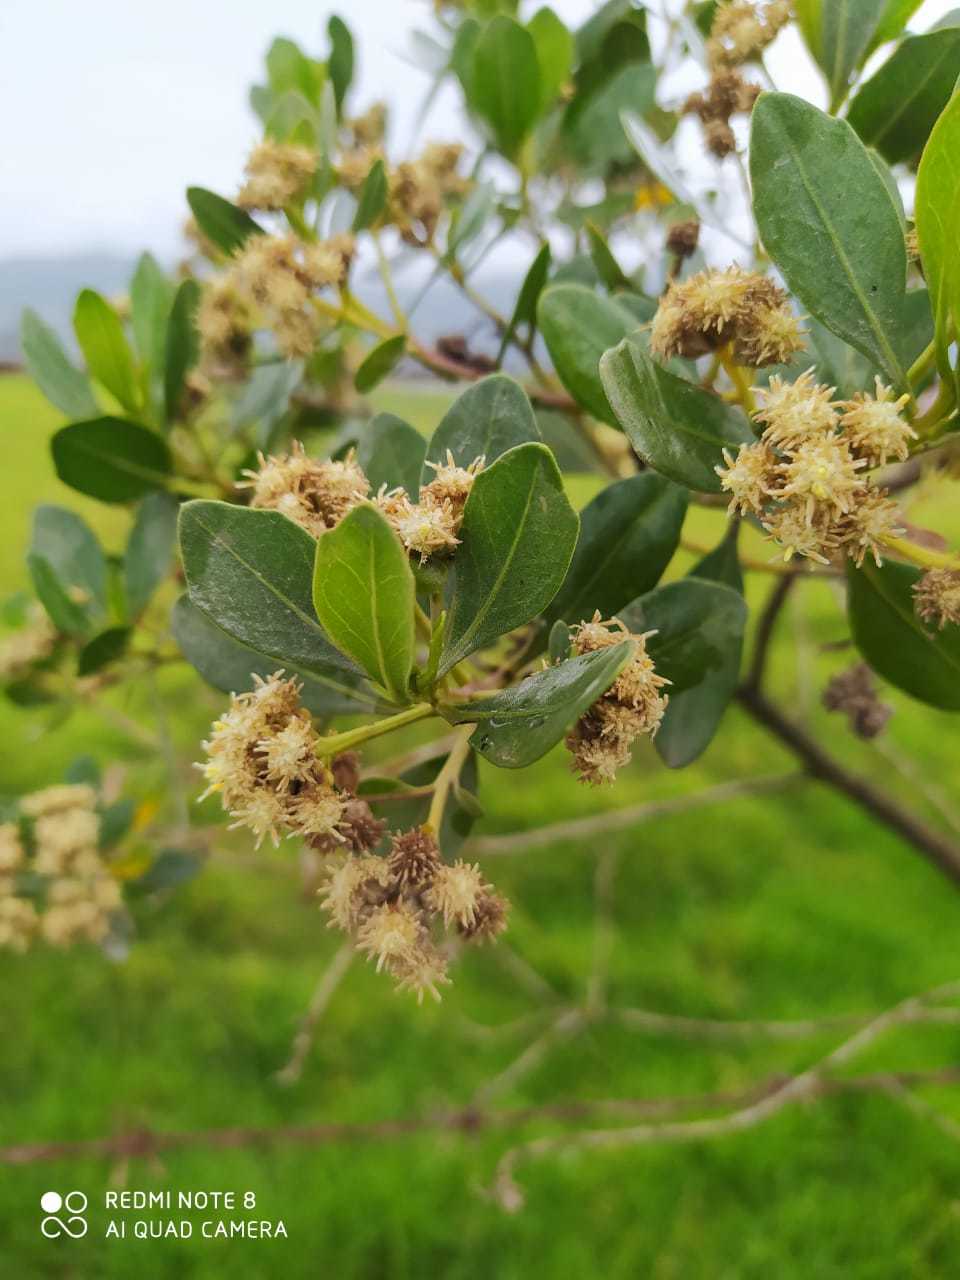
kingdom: Plantae
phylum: Tracheophyta
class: Magnoliopsida
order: Asterales
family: Asteraceae
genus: Baccharis
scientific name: Baccharis macrantha
